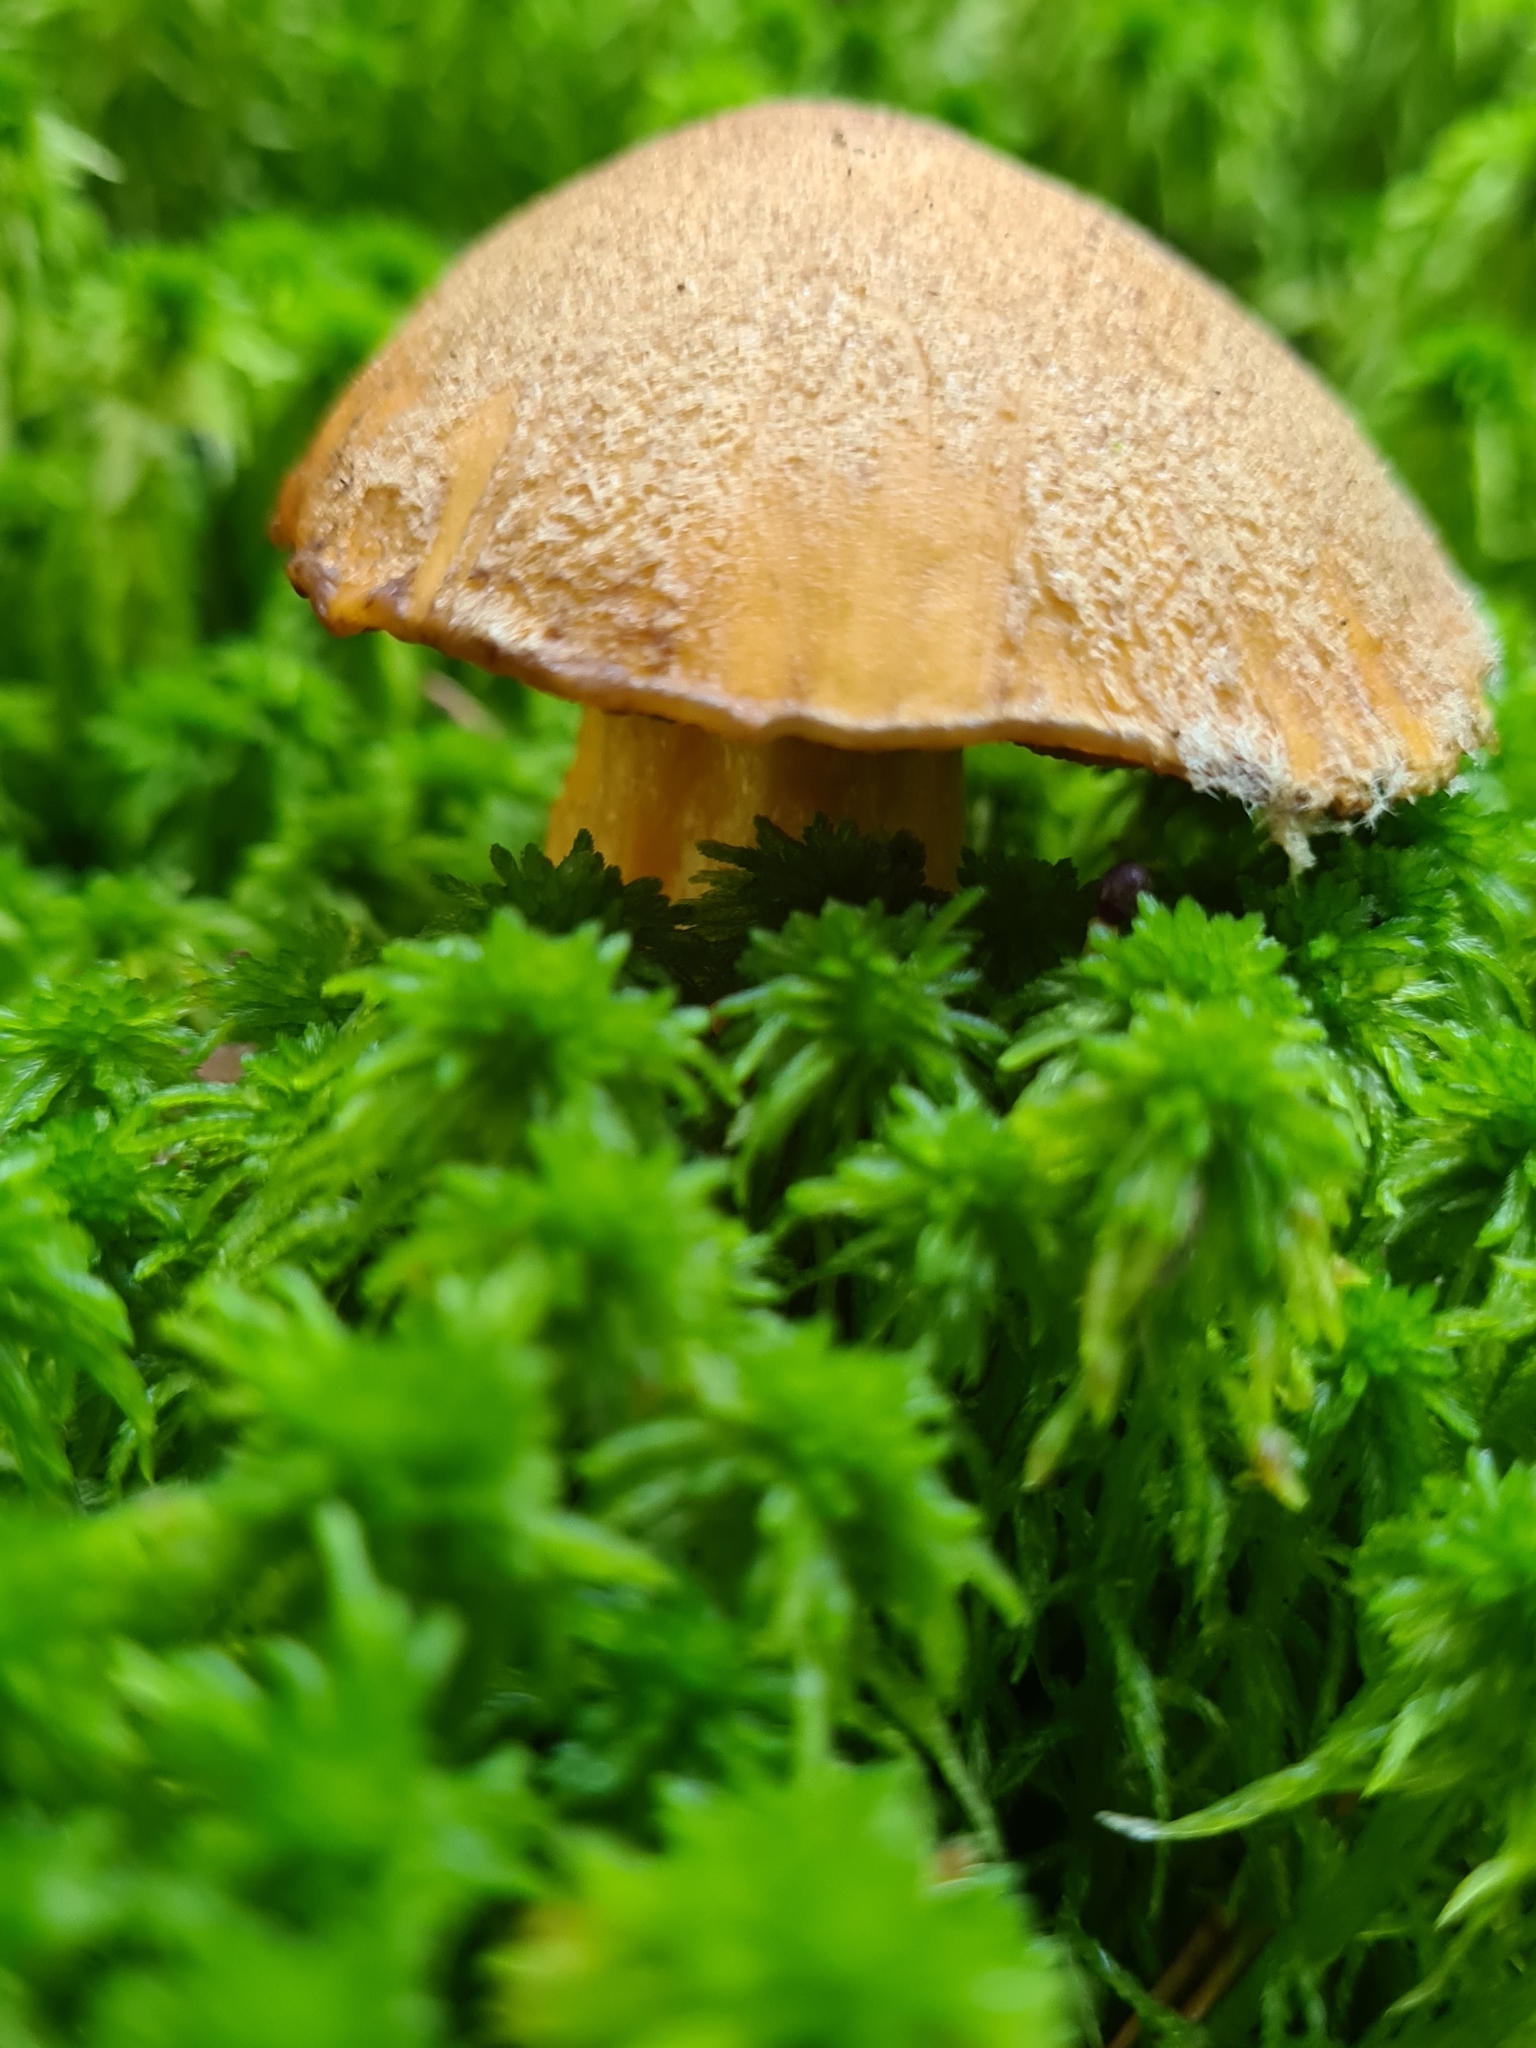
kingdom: Fungi
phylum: Basidiomycota
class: Agaricomycetes
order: Boletales
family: Suillaceae
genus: Suillus
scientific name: Suillus variegatus
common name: Velvet bolete
